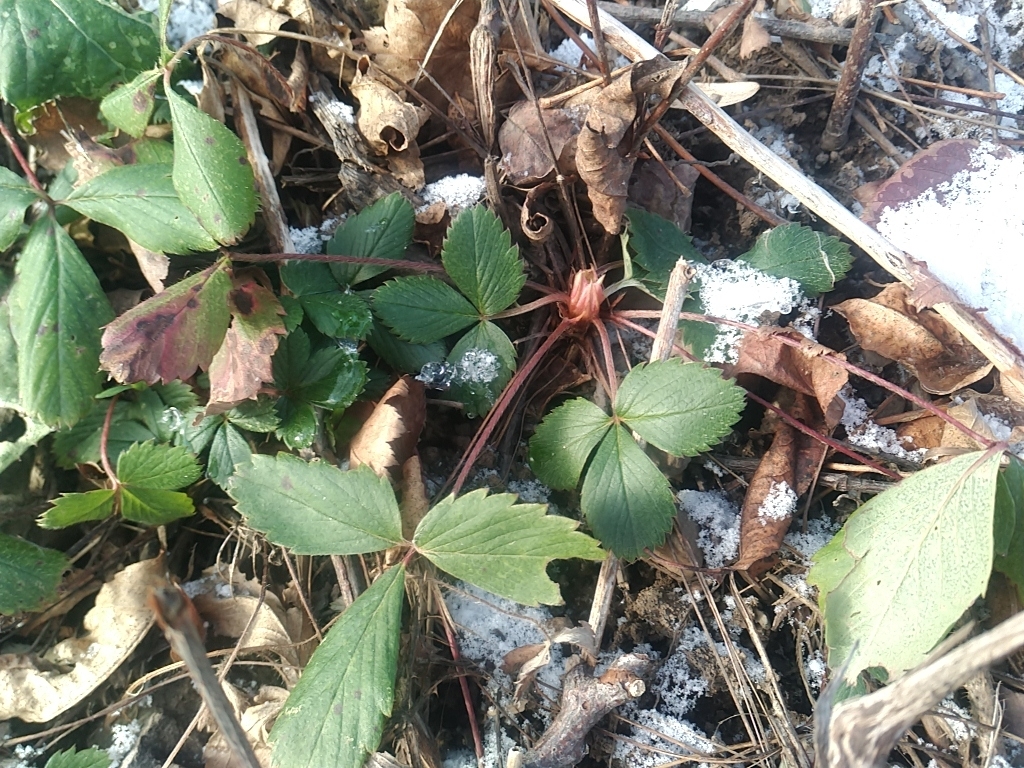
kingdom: Plantae
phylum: Tracheophyta
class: Magnoliopsida
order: Rosales
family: Rosaceae
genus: Fragaria
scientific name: Fragaria virginiana
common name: Thickleaved wild strawberry
